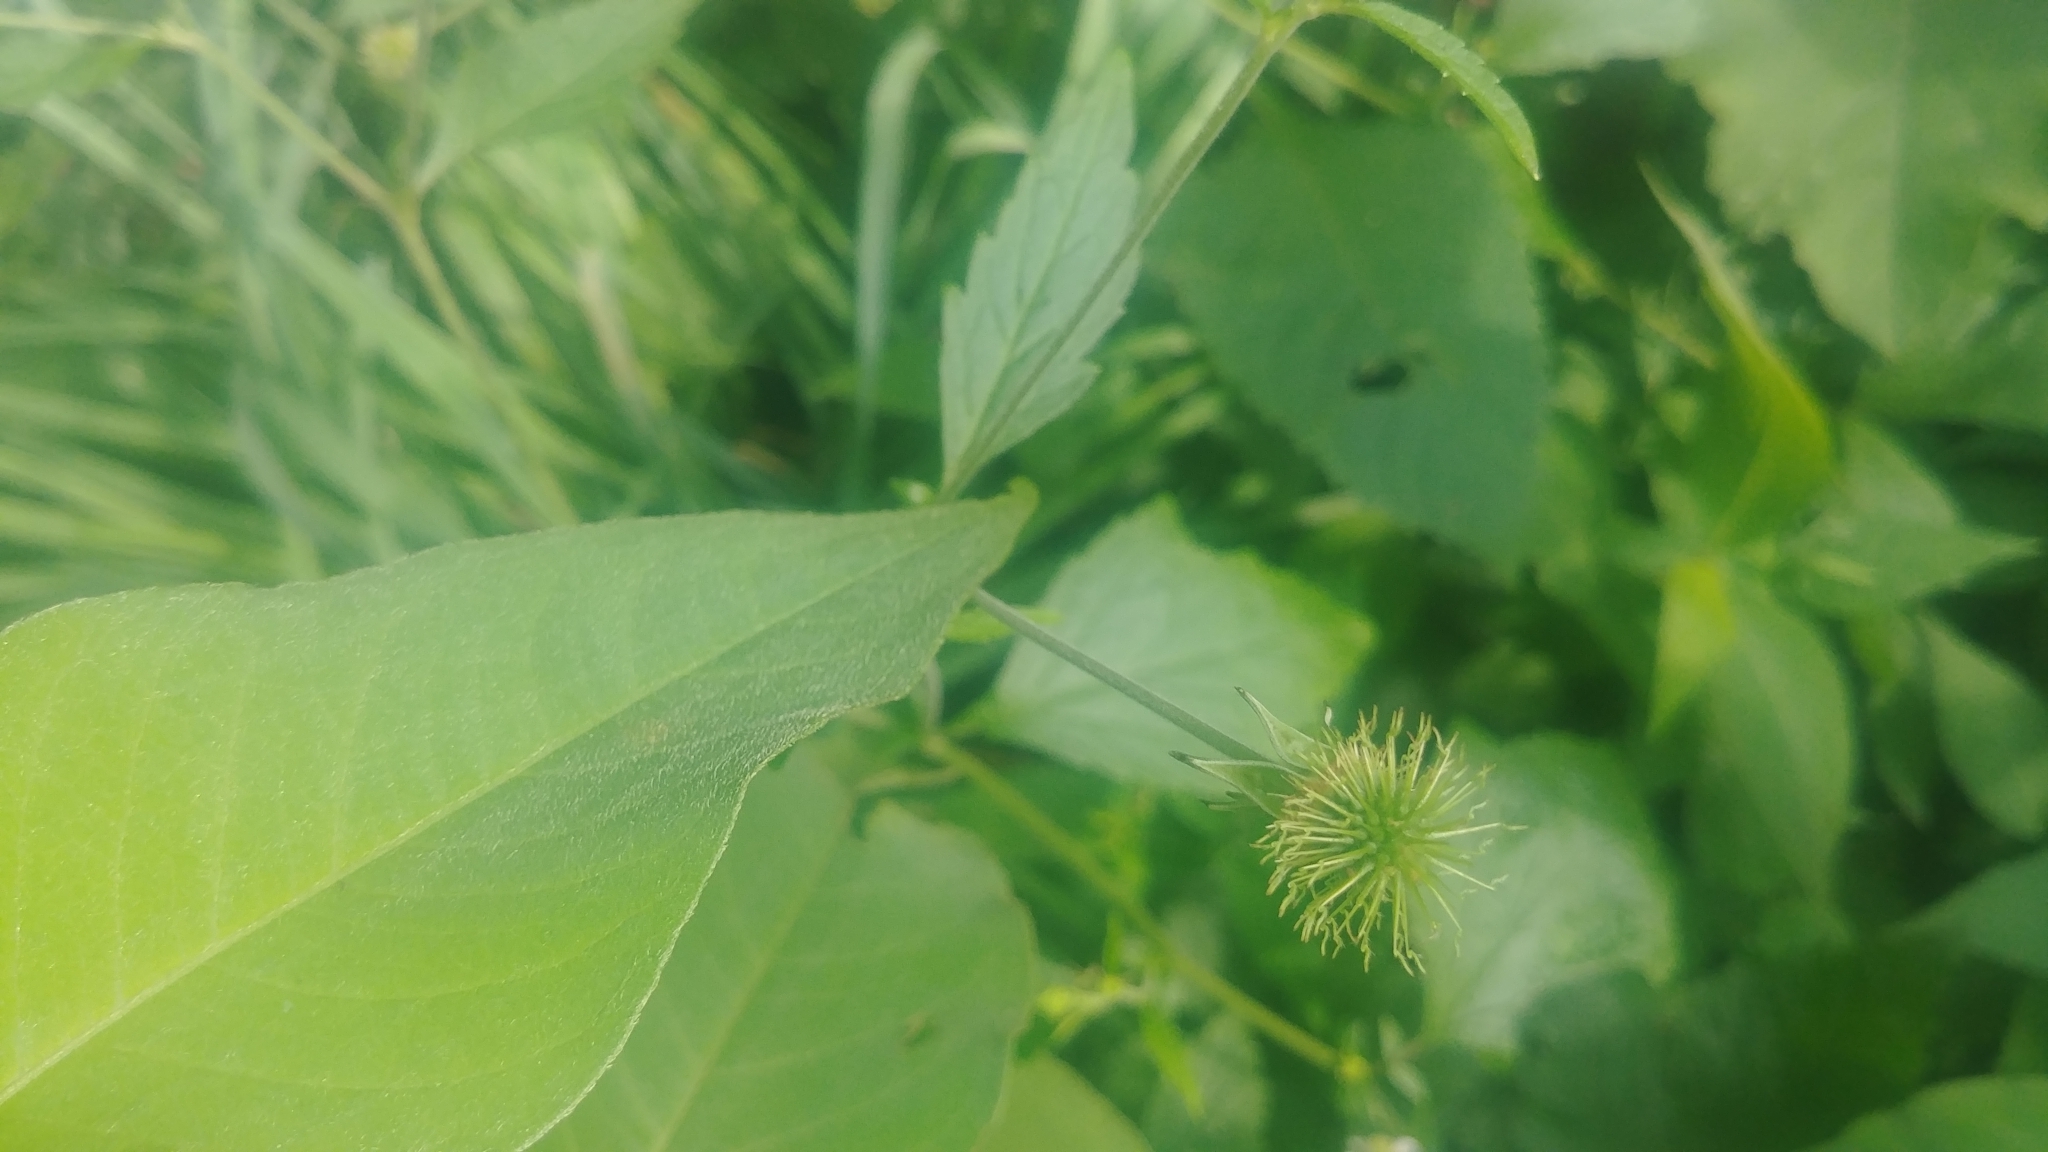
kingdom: Plantae
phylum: Tracheophyta
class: Magnoliopsida
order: Rosales
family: Rosaceae
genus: Geum
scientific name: Geum canadense
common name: White avens
